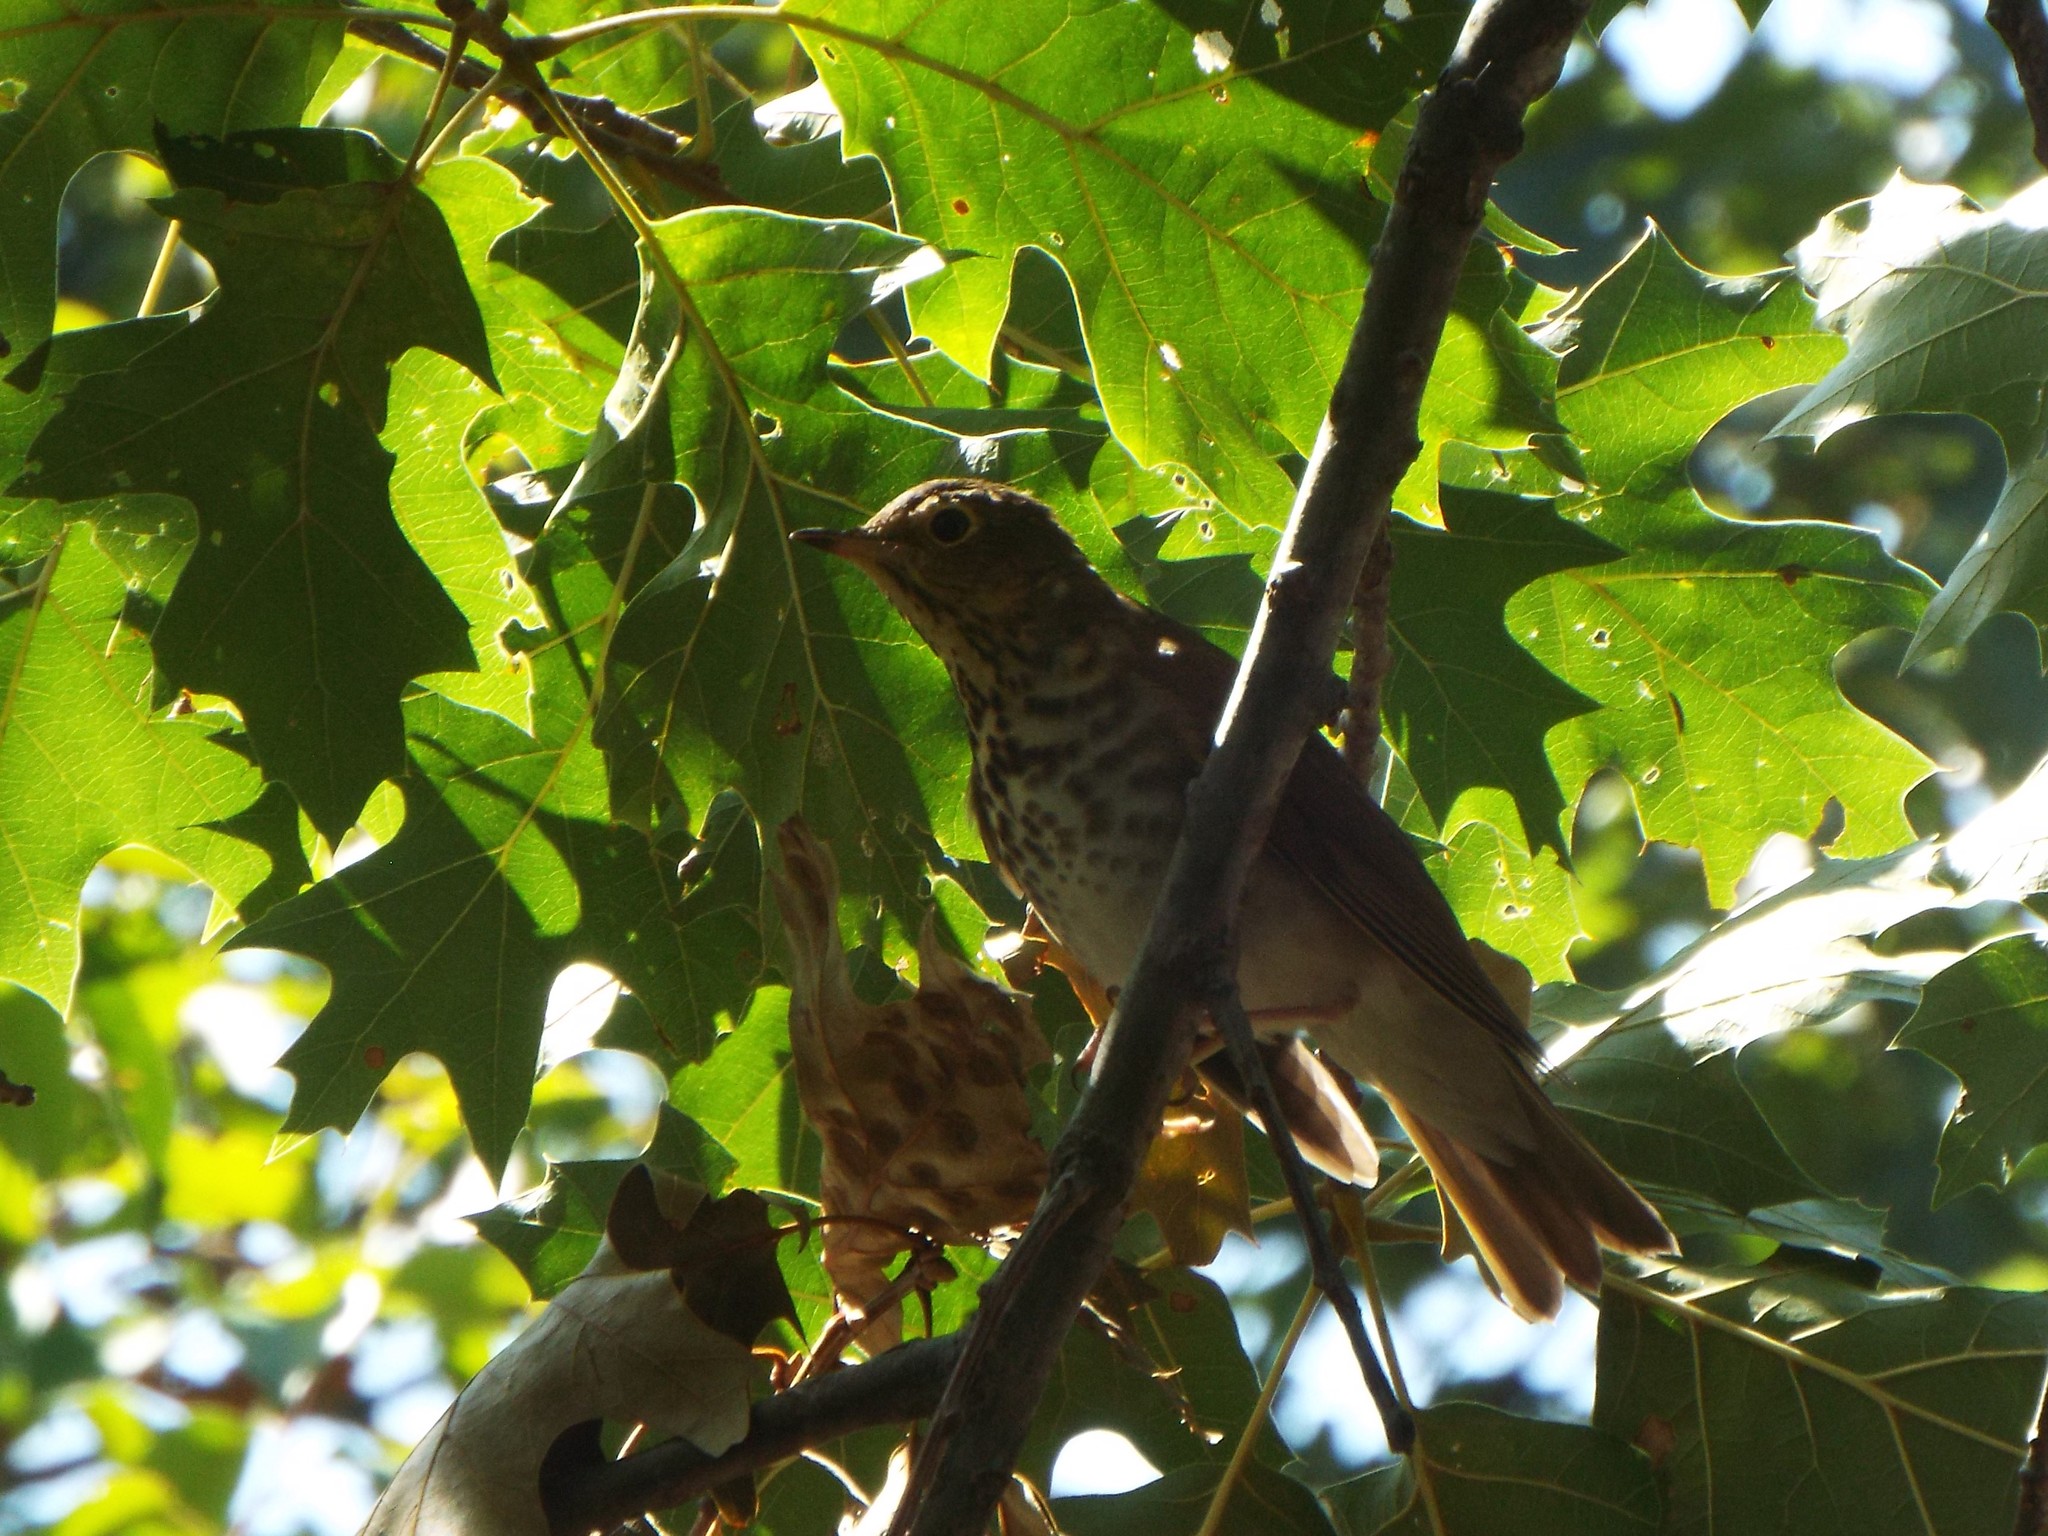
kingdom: Animalia
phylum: Chordata
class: Aves
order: Passeriformes
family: Turdidae
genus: Catharus
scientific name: Catharus ustulatus
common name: Swainson's thrush
